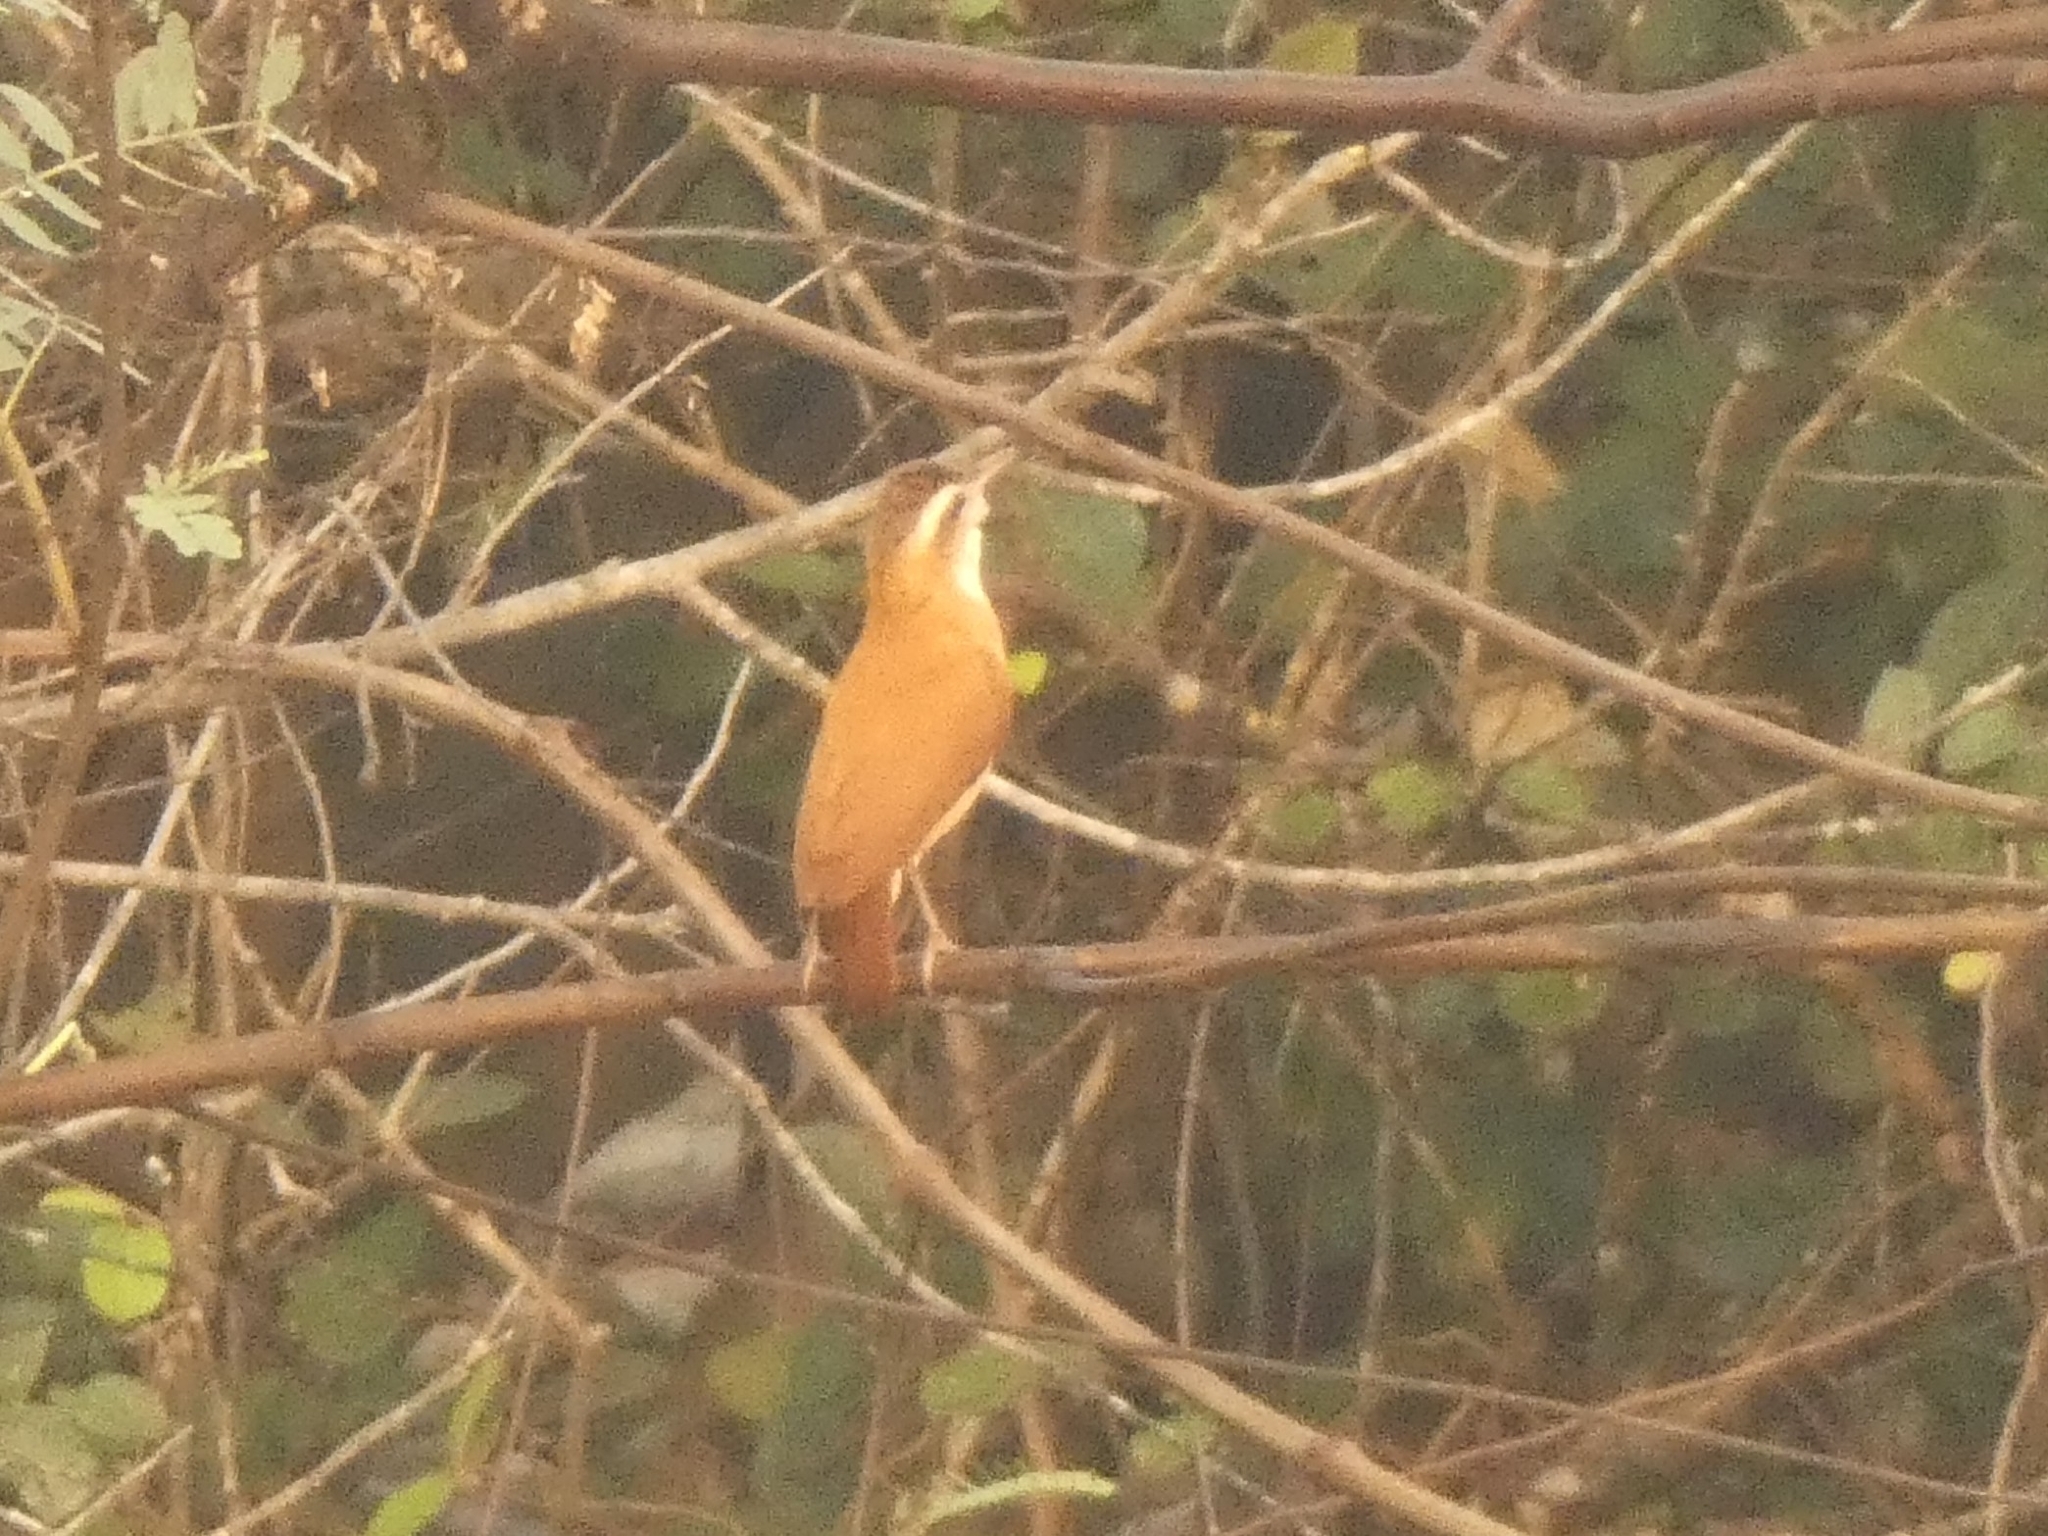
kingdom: Animalia
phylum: Chordata
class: Aves
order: Passeriformes
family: Furnariidae
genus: Furnarius
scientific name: Furnarius leucopus
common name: Pale-legged hornero
